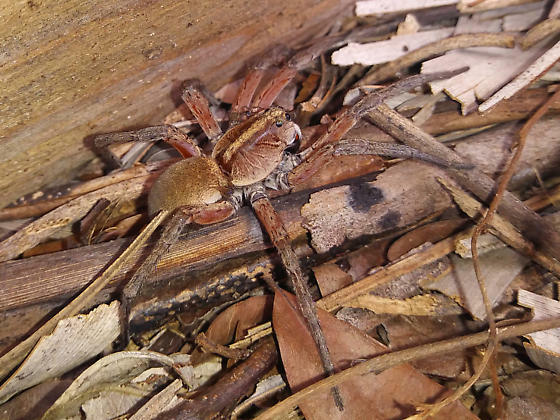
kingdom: Animalia
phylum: Arthropoda
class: Arachnida
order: Araneae
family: Lycosidae
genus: Hogna
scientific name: Hogna osceola
